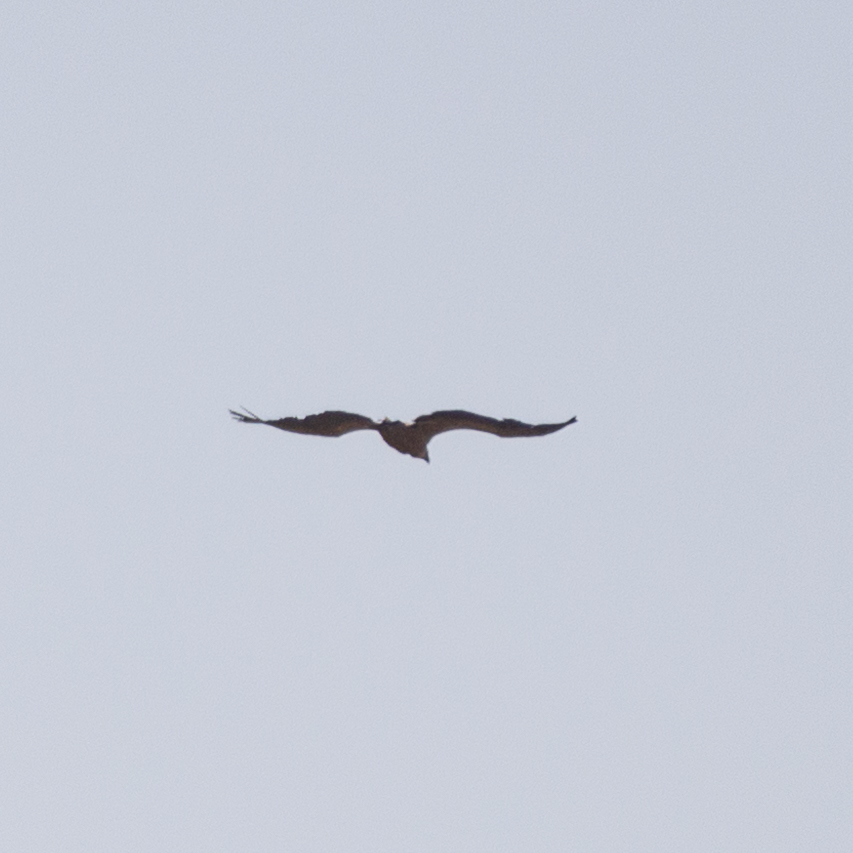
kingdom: Animalia
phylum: Chordata
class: Aves
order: Accipitriformes
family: Accipitridae
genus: Gyps
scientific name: Gyps fulvus
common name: Griffon vulture
